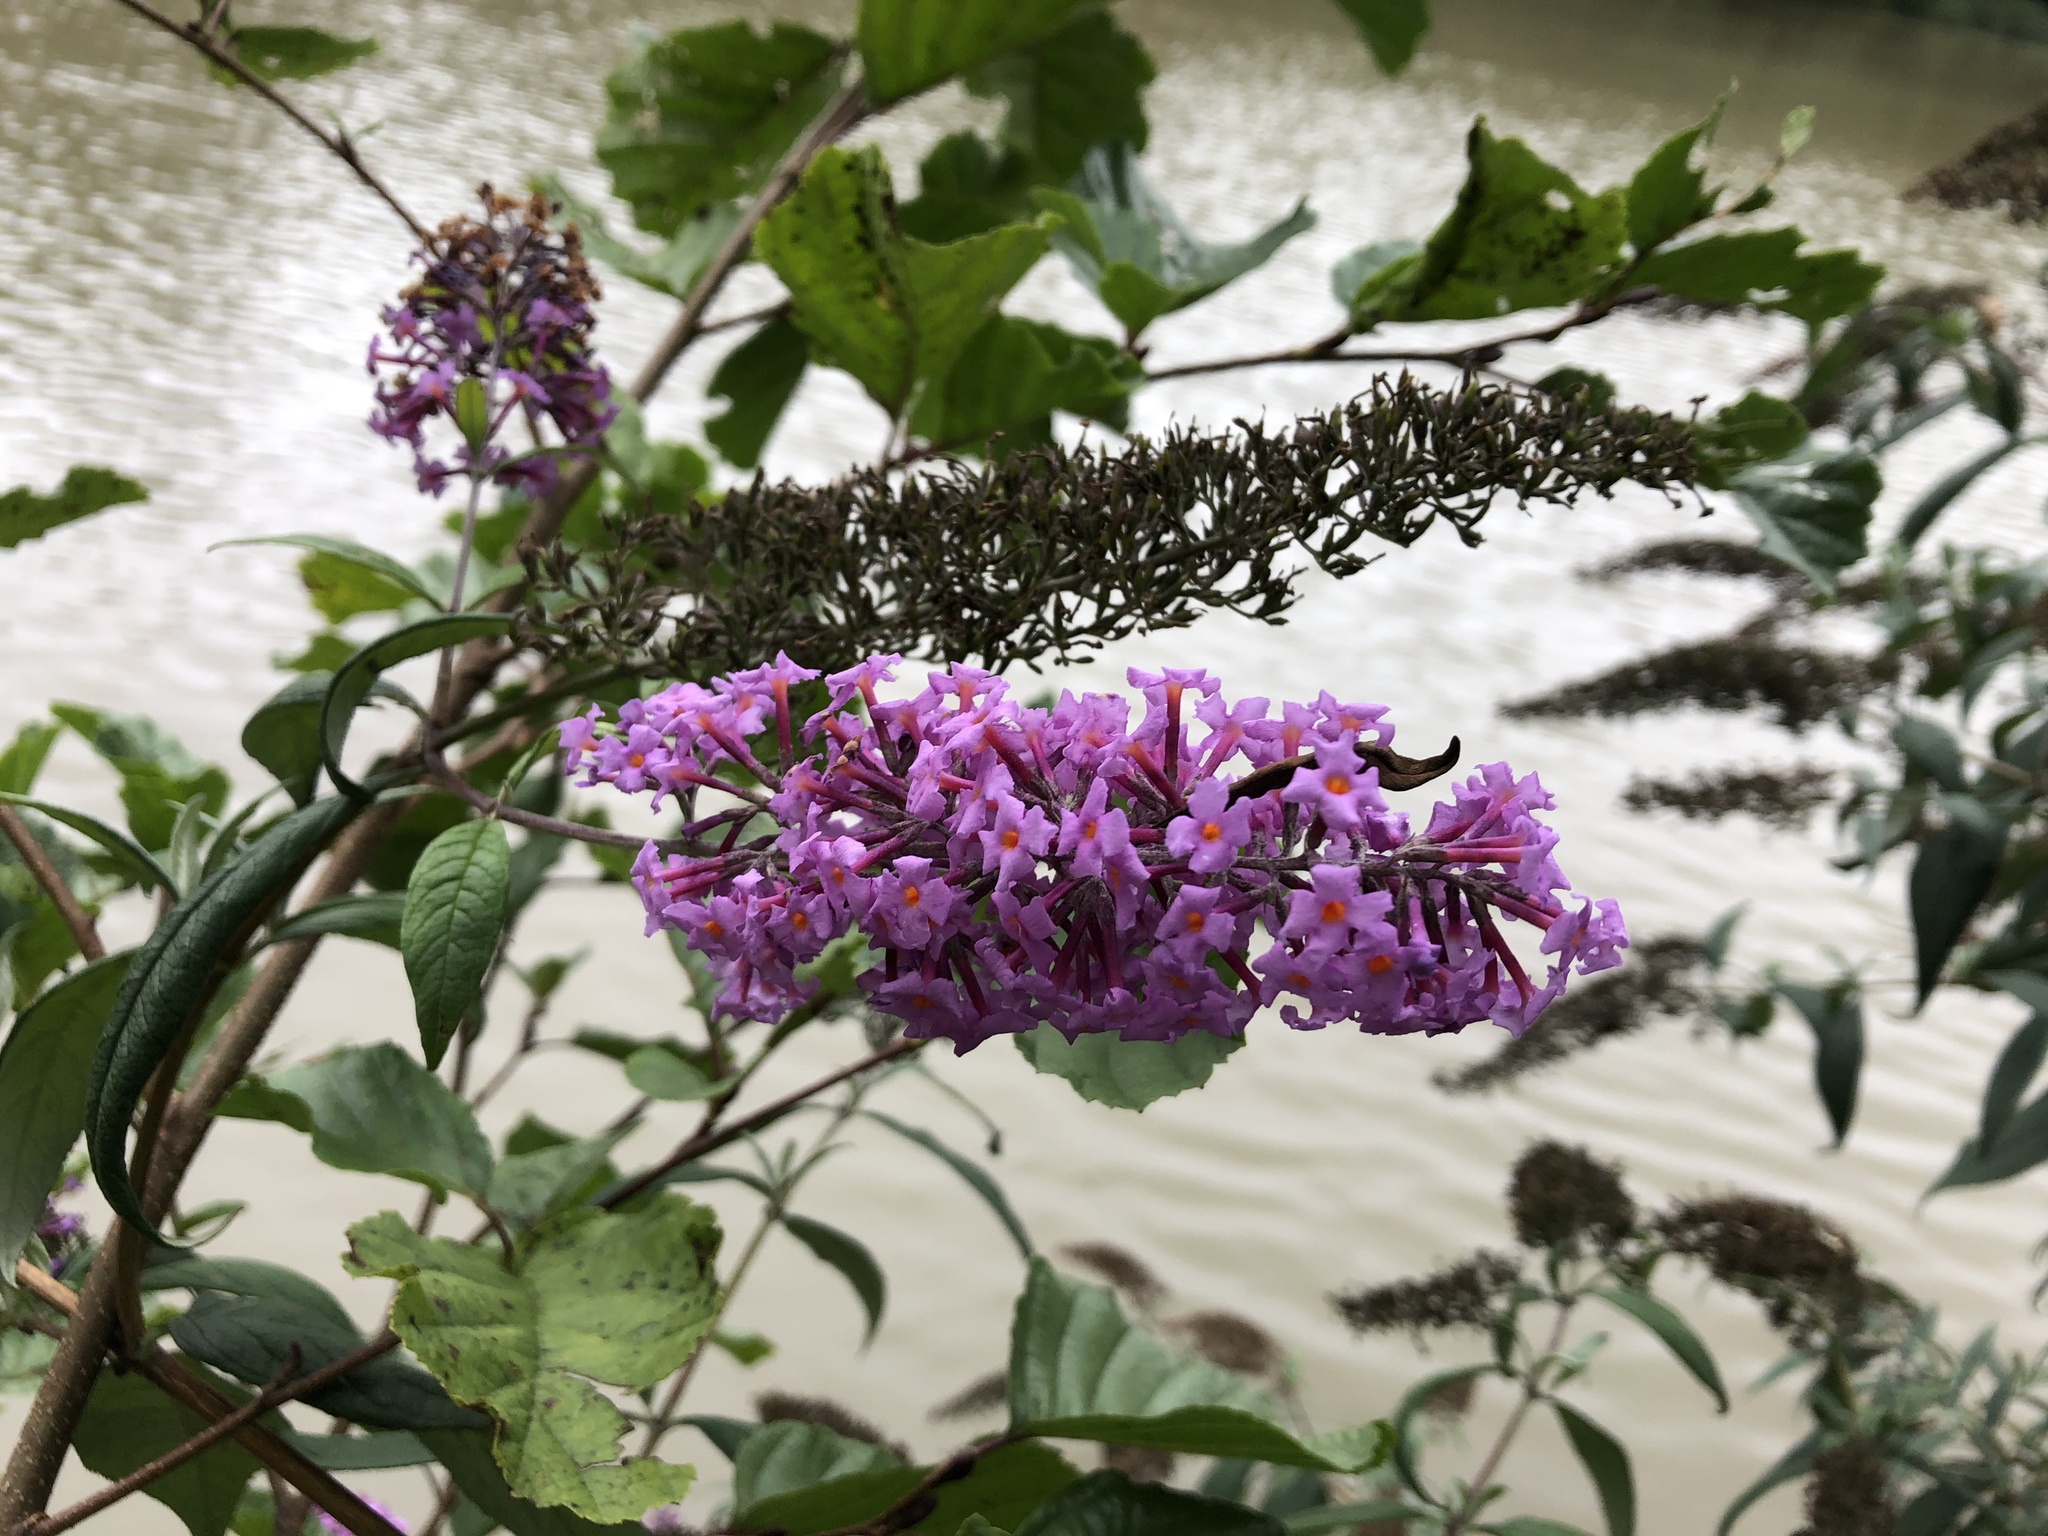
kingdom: Plantae
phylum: Tracheophyta
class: Magnoliopsida
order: Lamiales
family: Scrophulariaceae
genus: Buddleja
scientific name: Buddleja davidii
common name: Butterfly-bush
